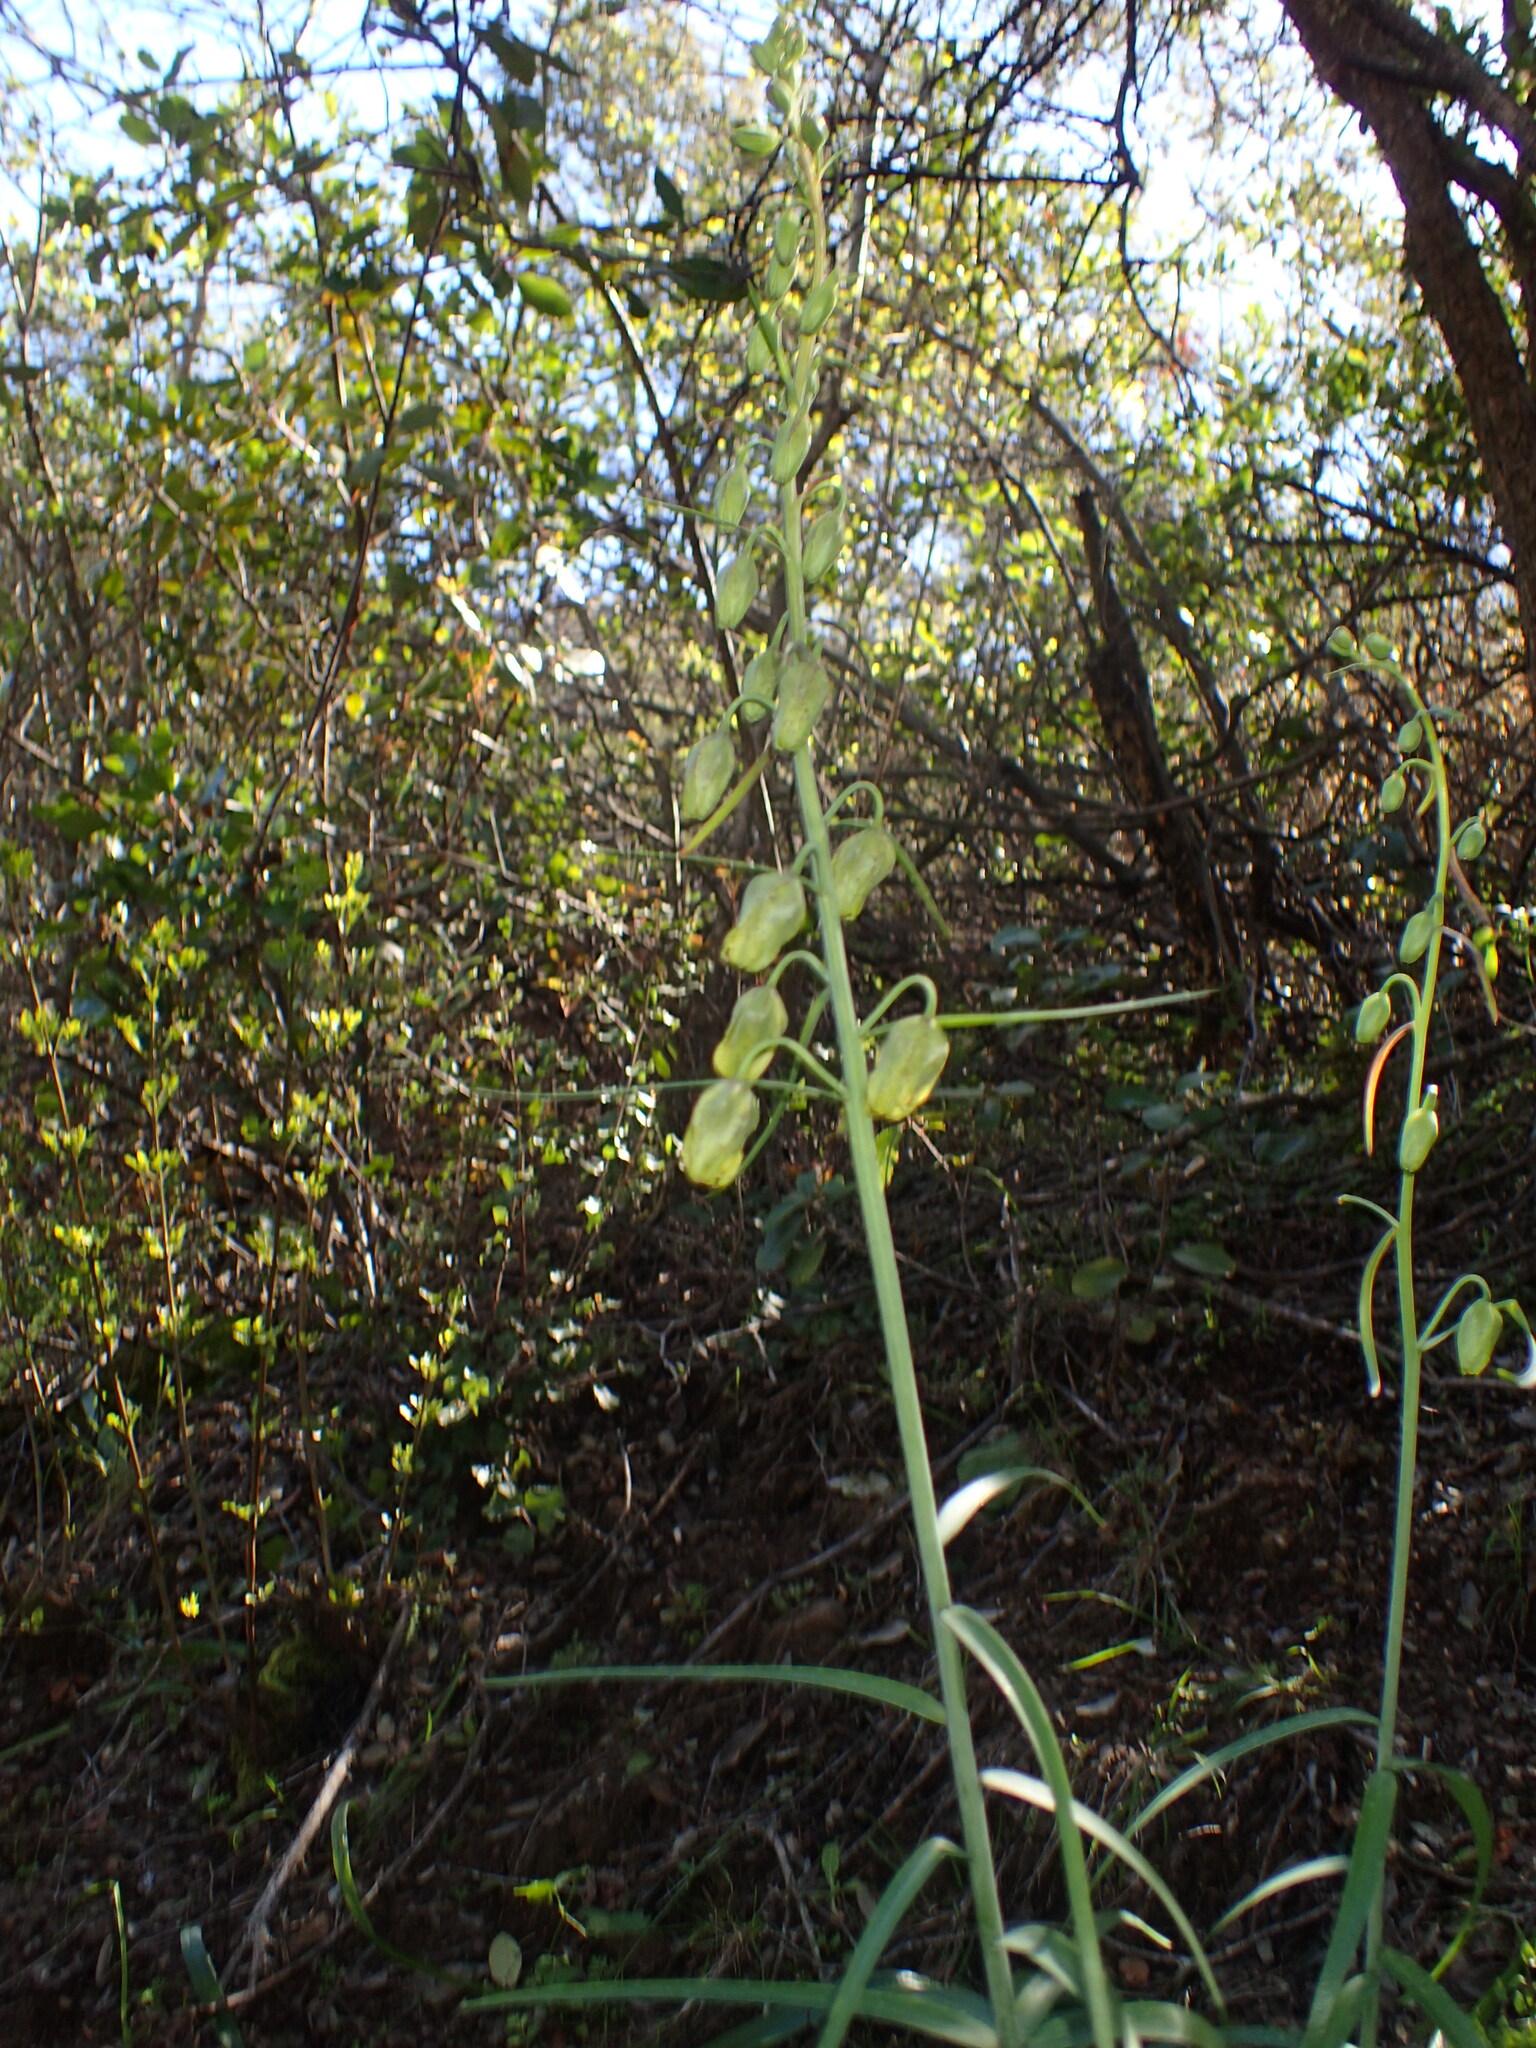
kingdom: Plantae
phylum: Tracheophyta
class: Liliopsida
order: Liliales
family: Liliaceae
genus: Fritillaria
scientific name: Fritillaria ojaiensis
